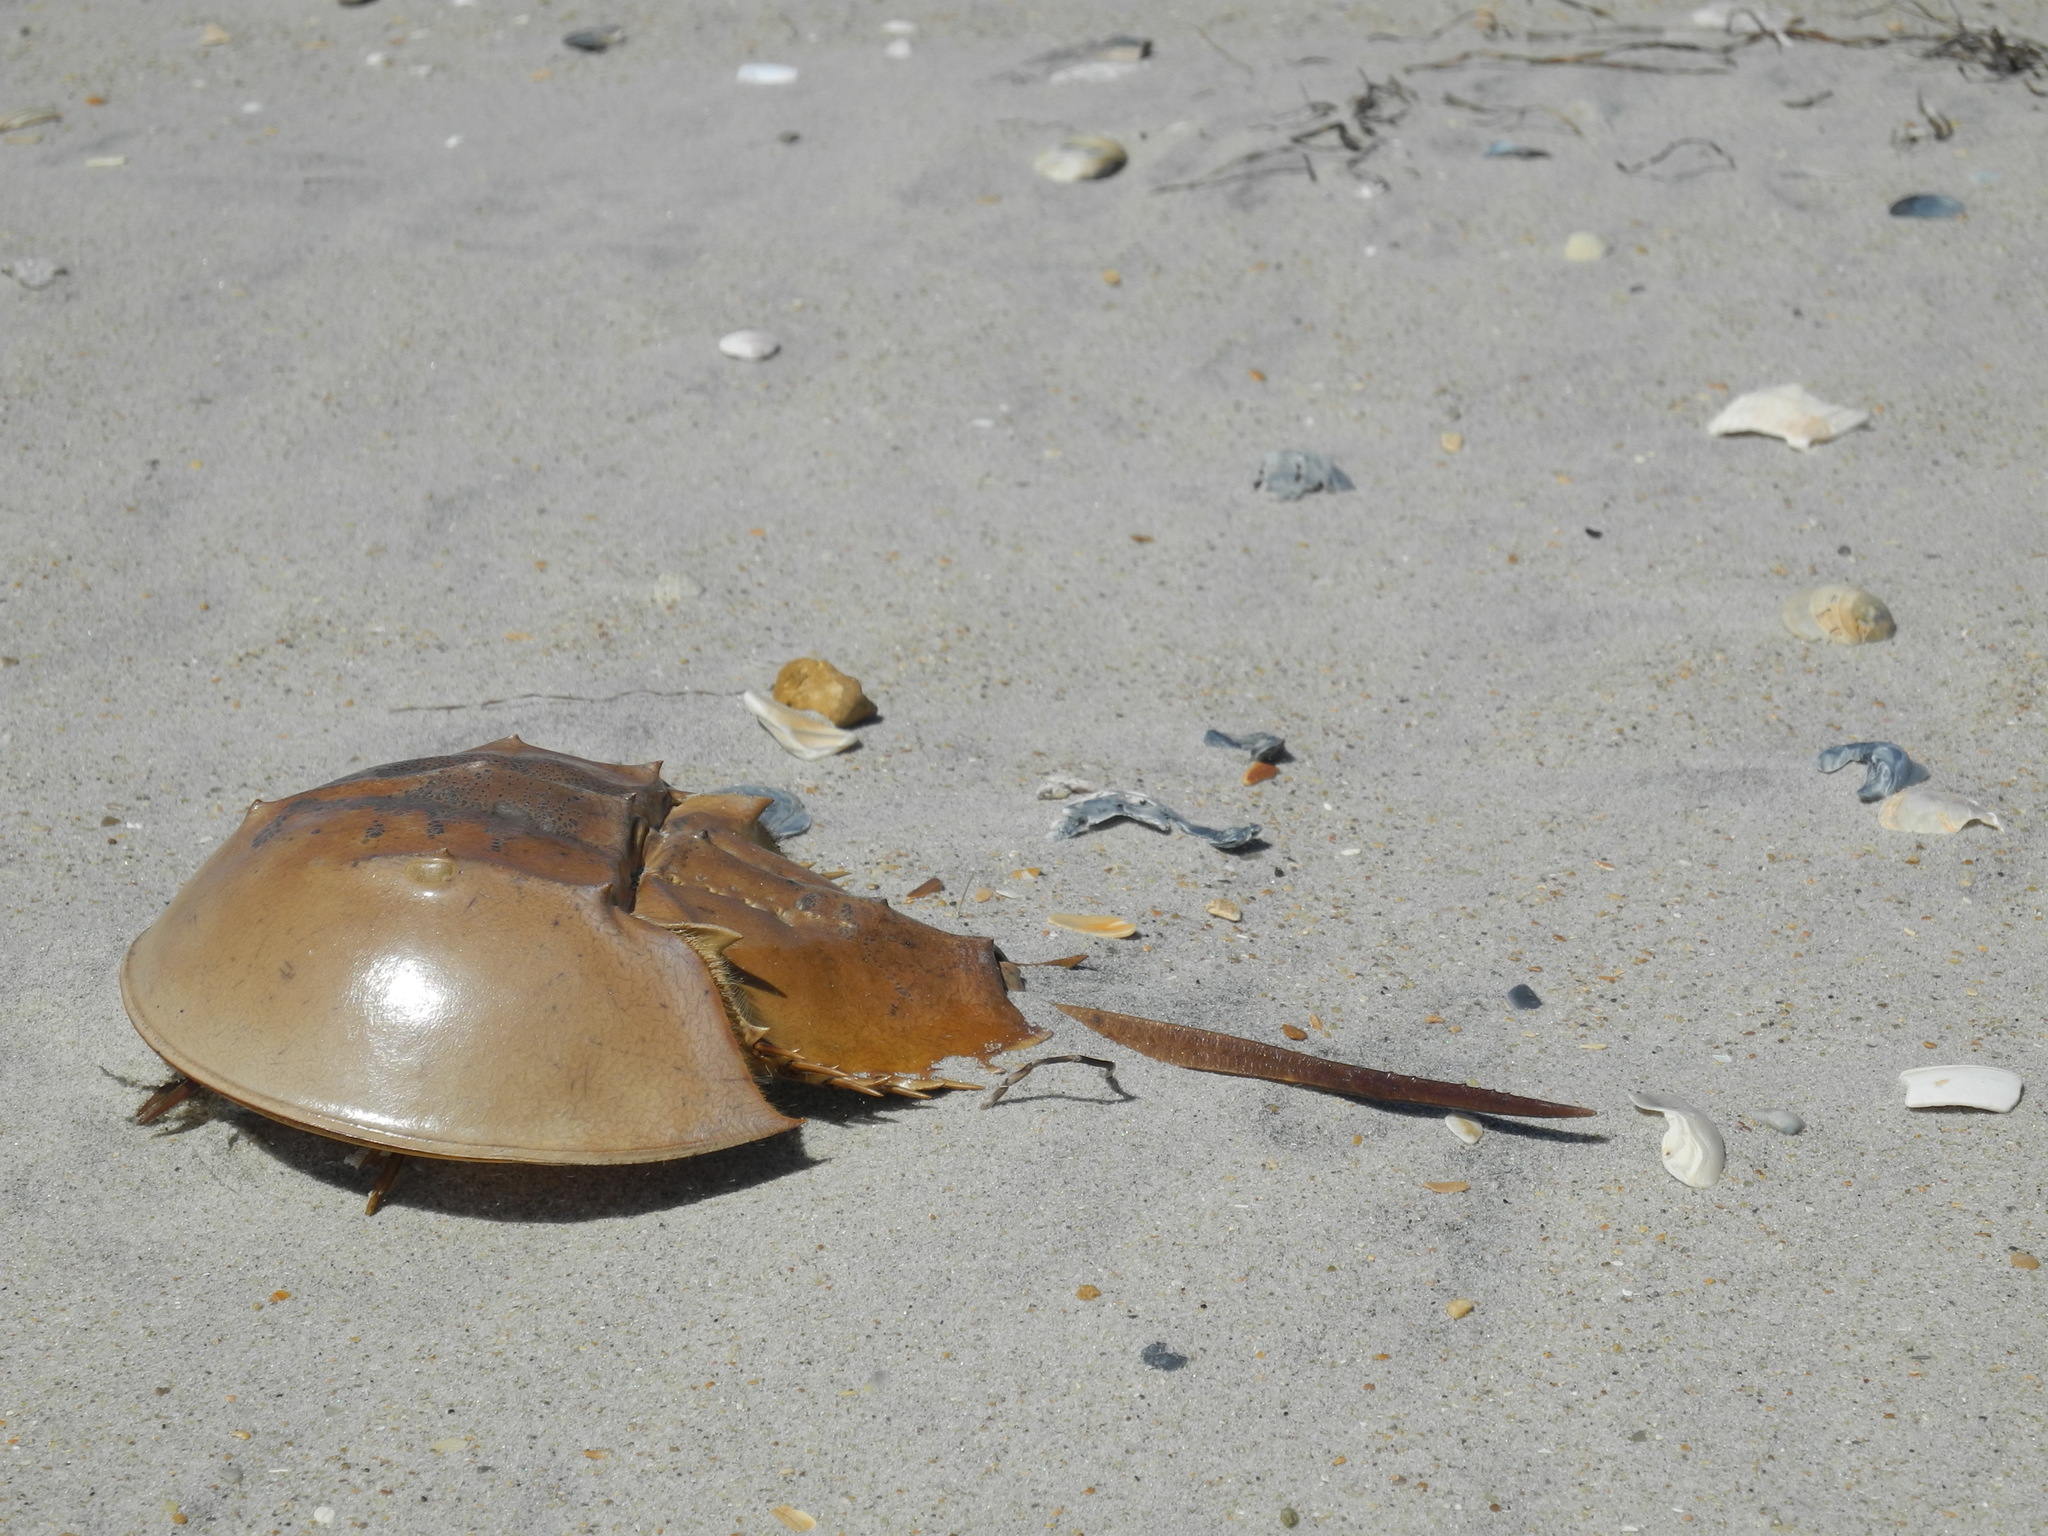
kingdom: Animalia
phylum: Arthropoda
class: Merostomata
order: Xiphosurida
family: Limulidae
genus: Limulus
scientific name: Limulus polyphemus
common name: Horseshoe crab
